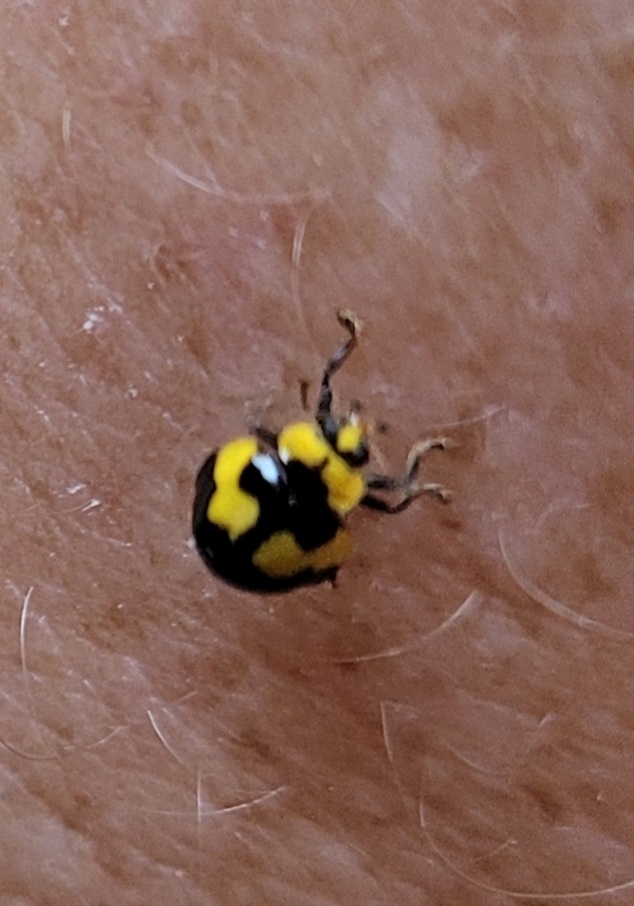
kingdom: Animalia
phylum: Arthropoda
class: Insecta
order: Coleoptera
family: Coccinellidae
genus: Illeis
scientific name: Illeis galbula
